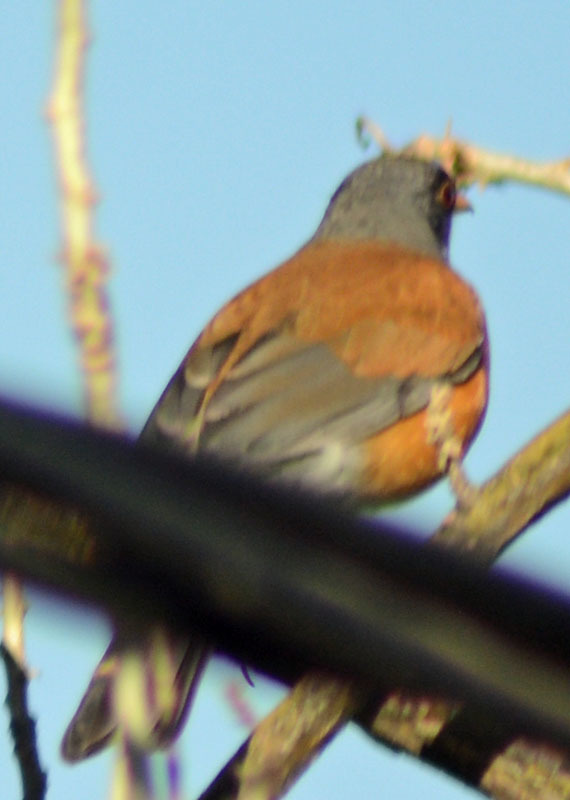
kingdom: Animalia
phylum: Chordata
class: Aves
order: Passeriformes
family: Turdidae
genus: Turdus
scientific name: Turdus rufopalliatus
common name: Rufous-backed robin
